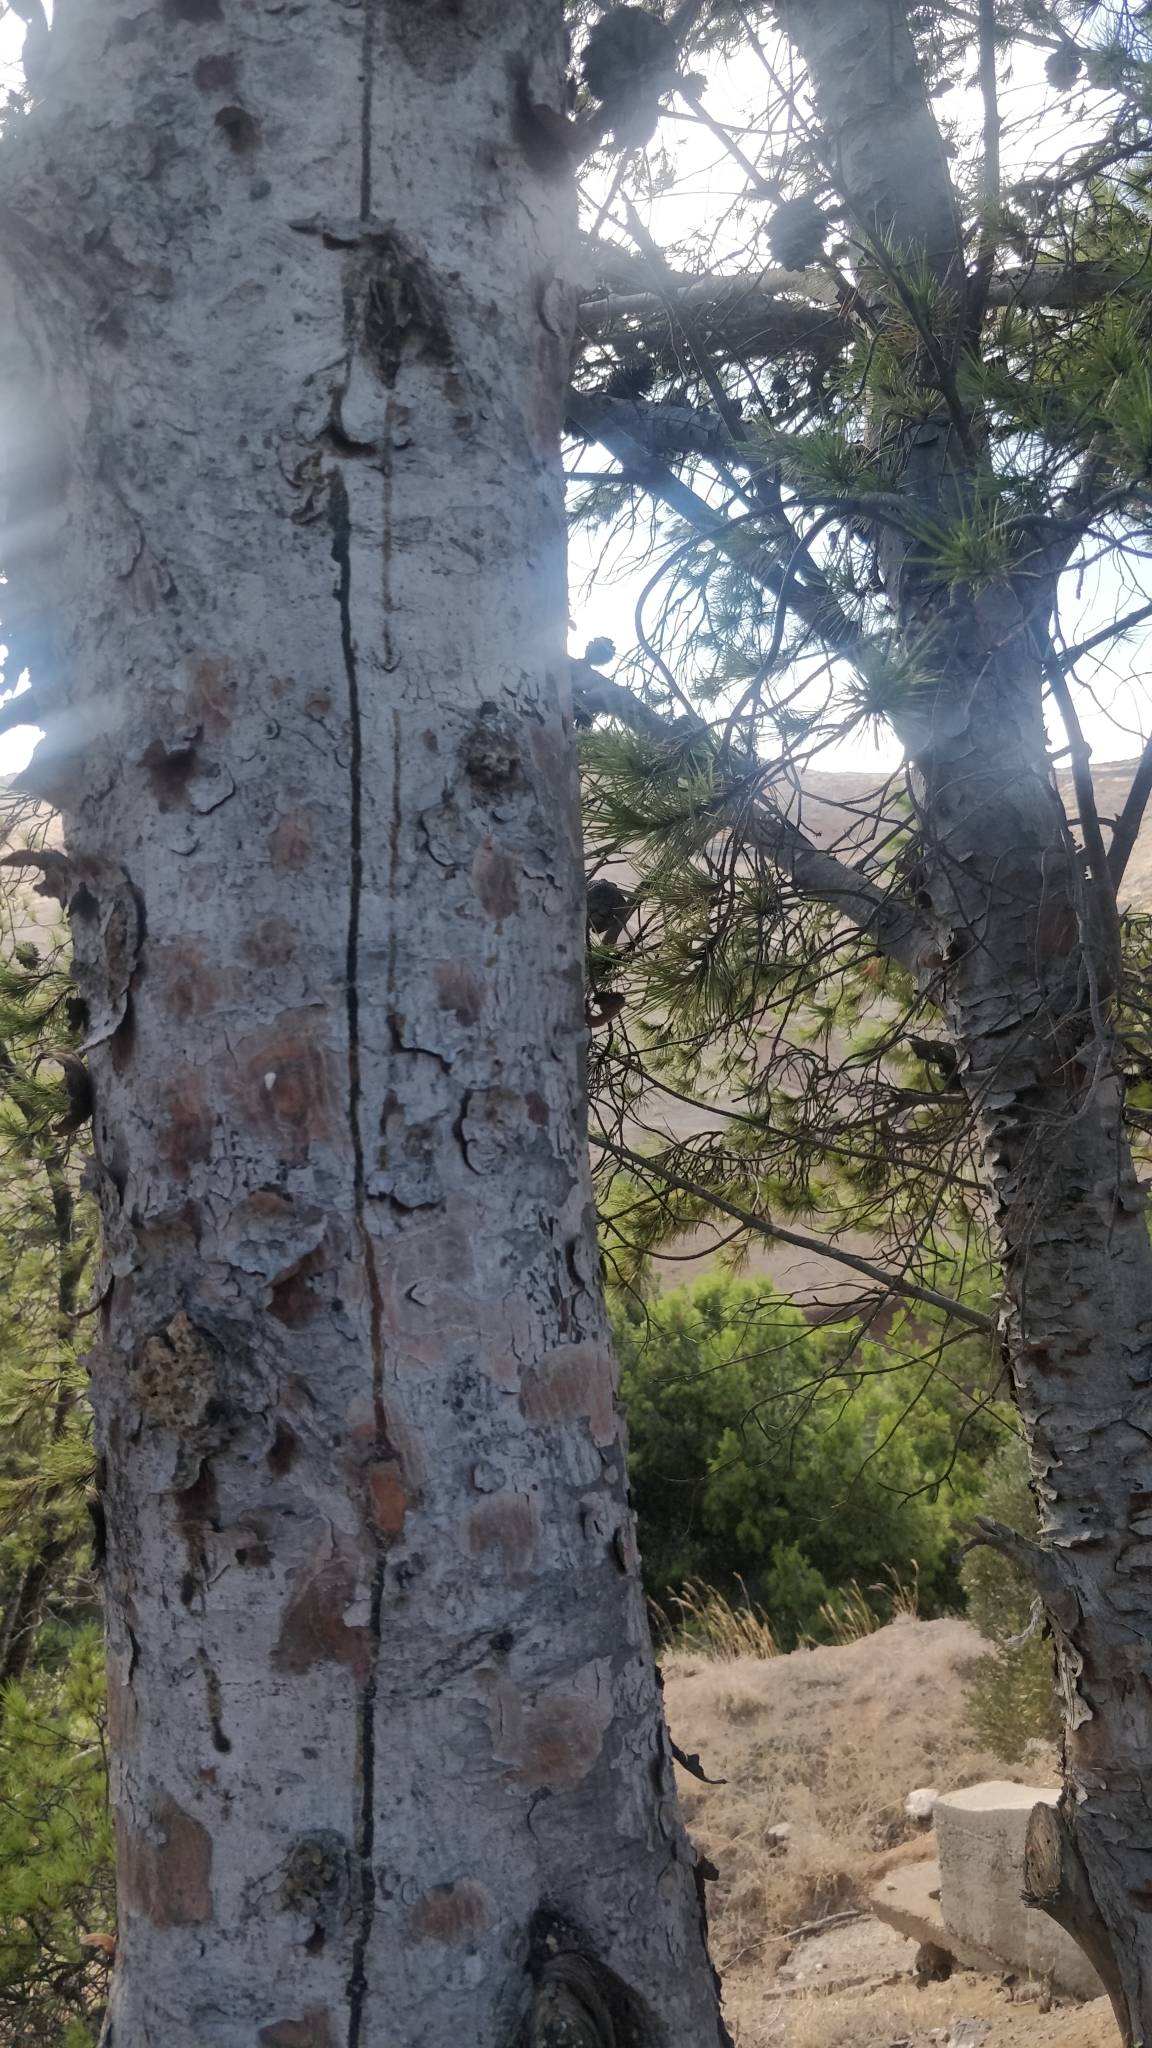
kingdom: Plantae
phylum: Tracheophyta
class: Pinopsida
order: Pinales
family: Pinaceae
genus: Pinus
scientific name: Pinus halepensis
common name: Aleppo pine
